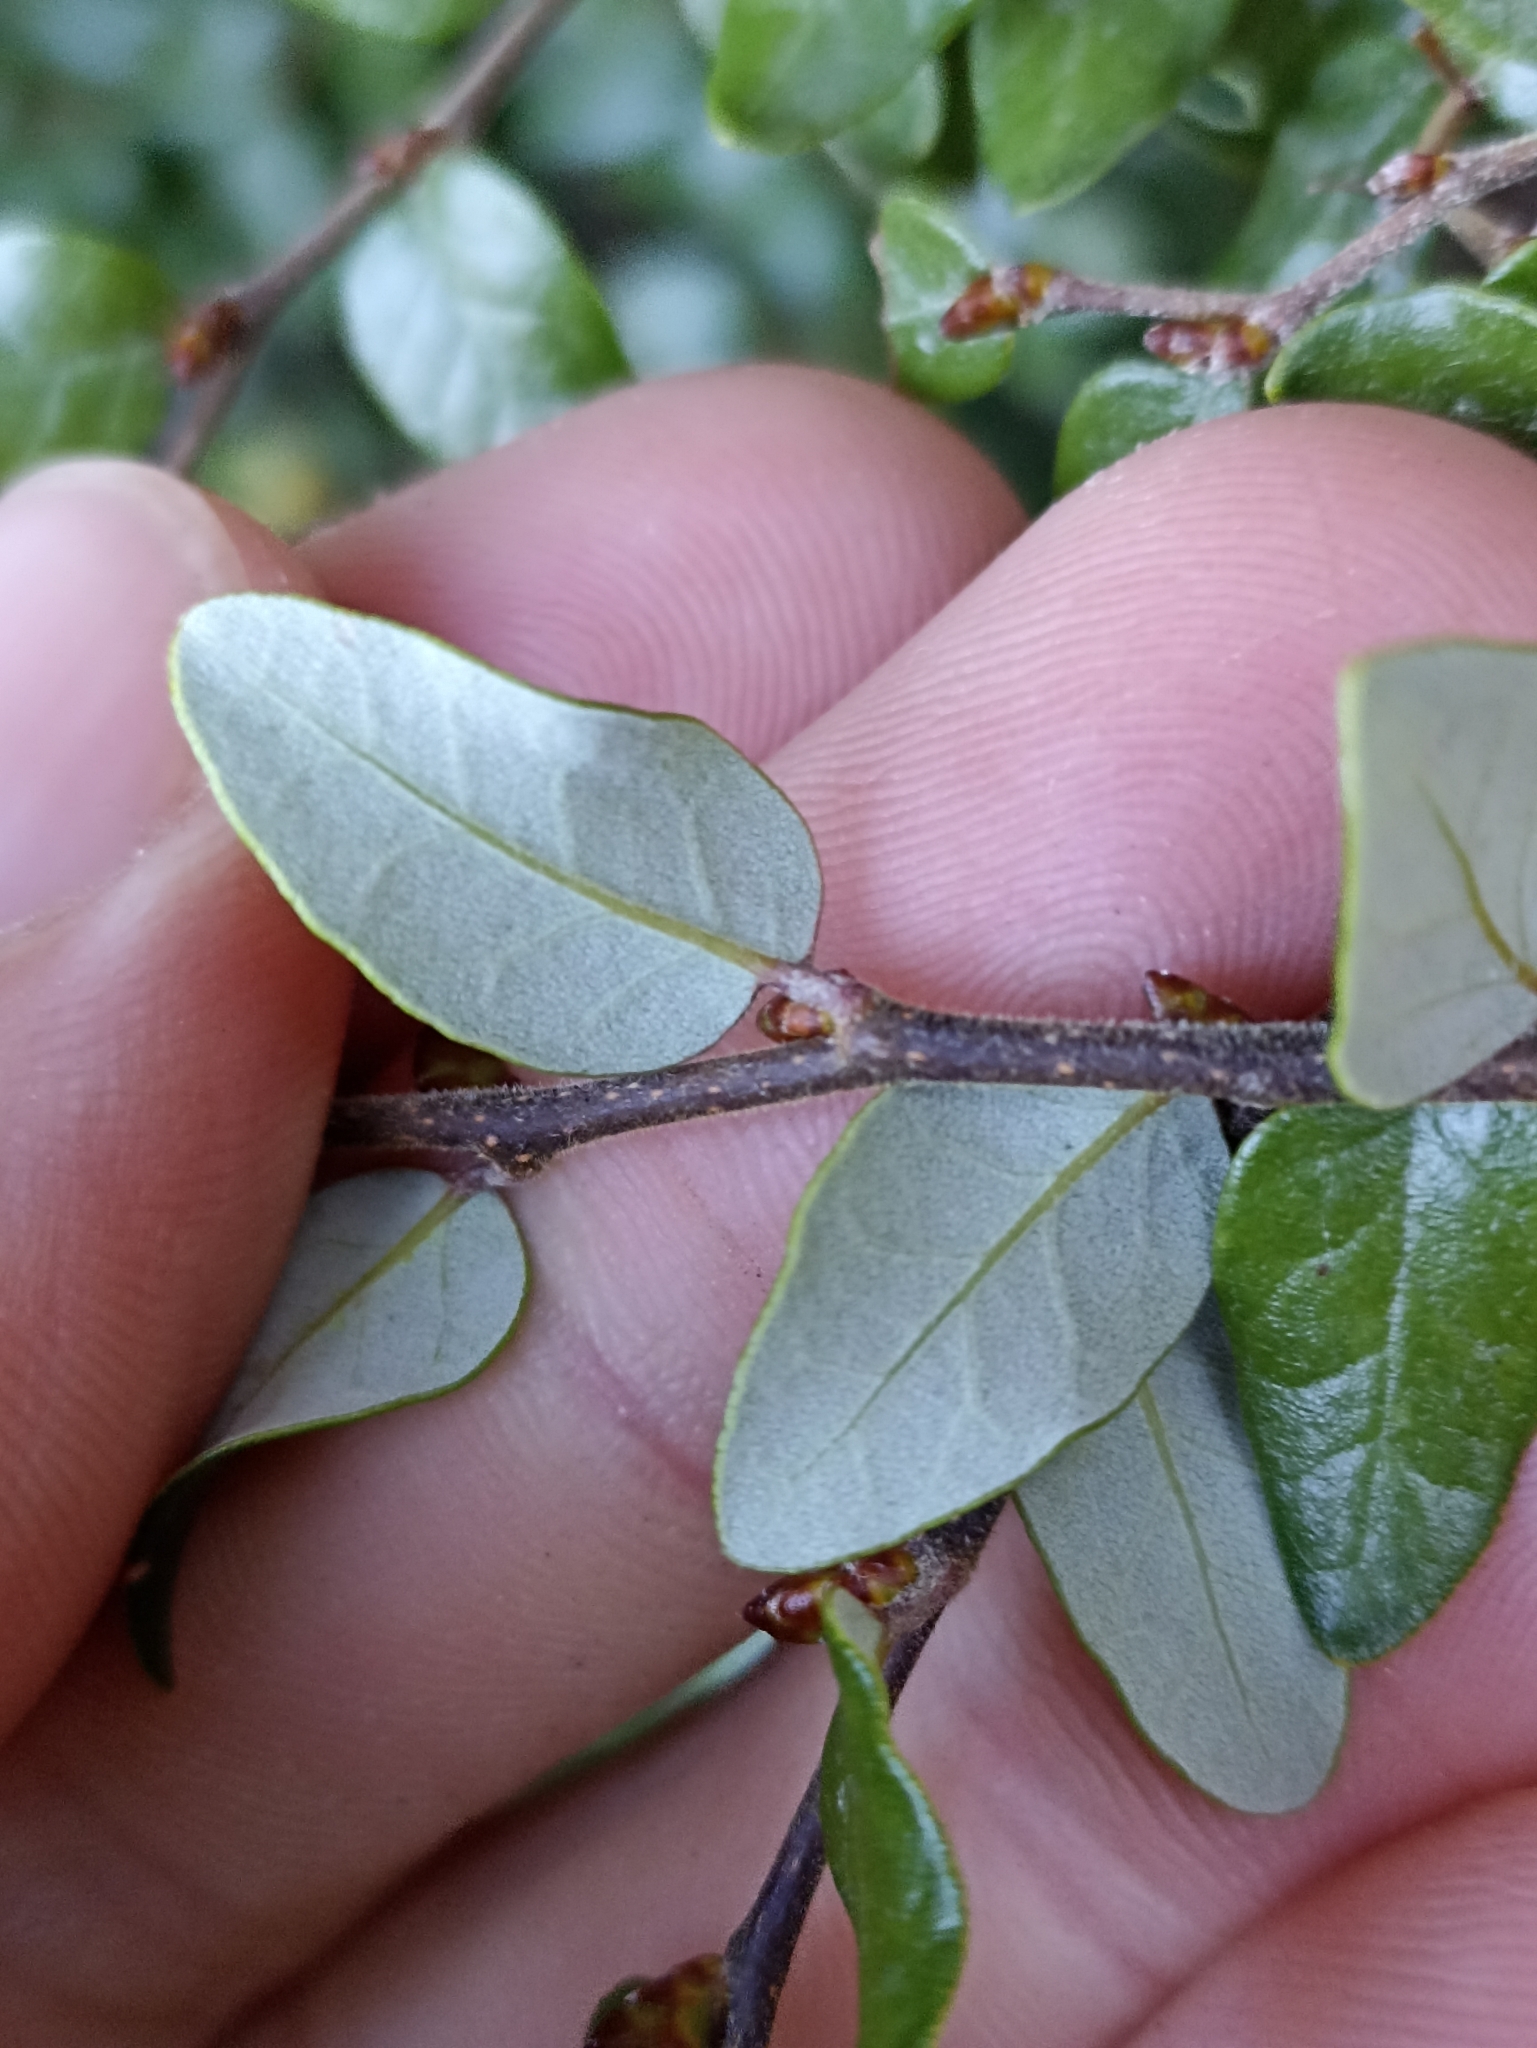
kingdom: Plantae
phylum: Tracheophyta
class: Magnoliopsida
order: Fagales
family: Nothofagaceae
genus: Nothofagus
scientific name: Nothofagus cliffortioides
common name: Mountain beech
